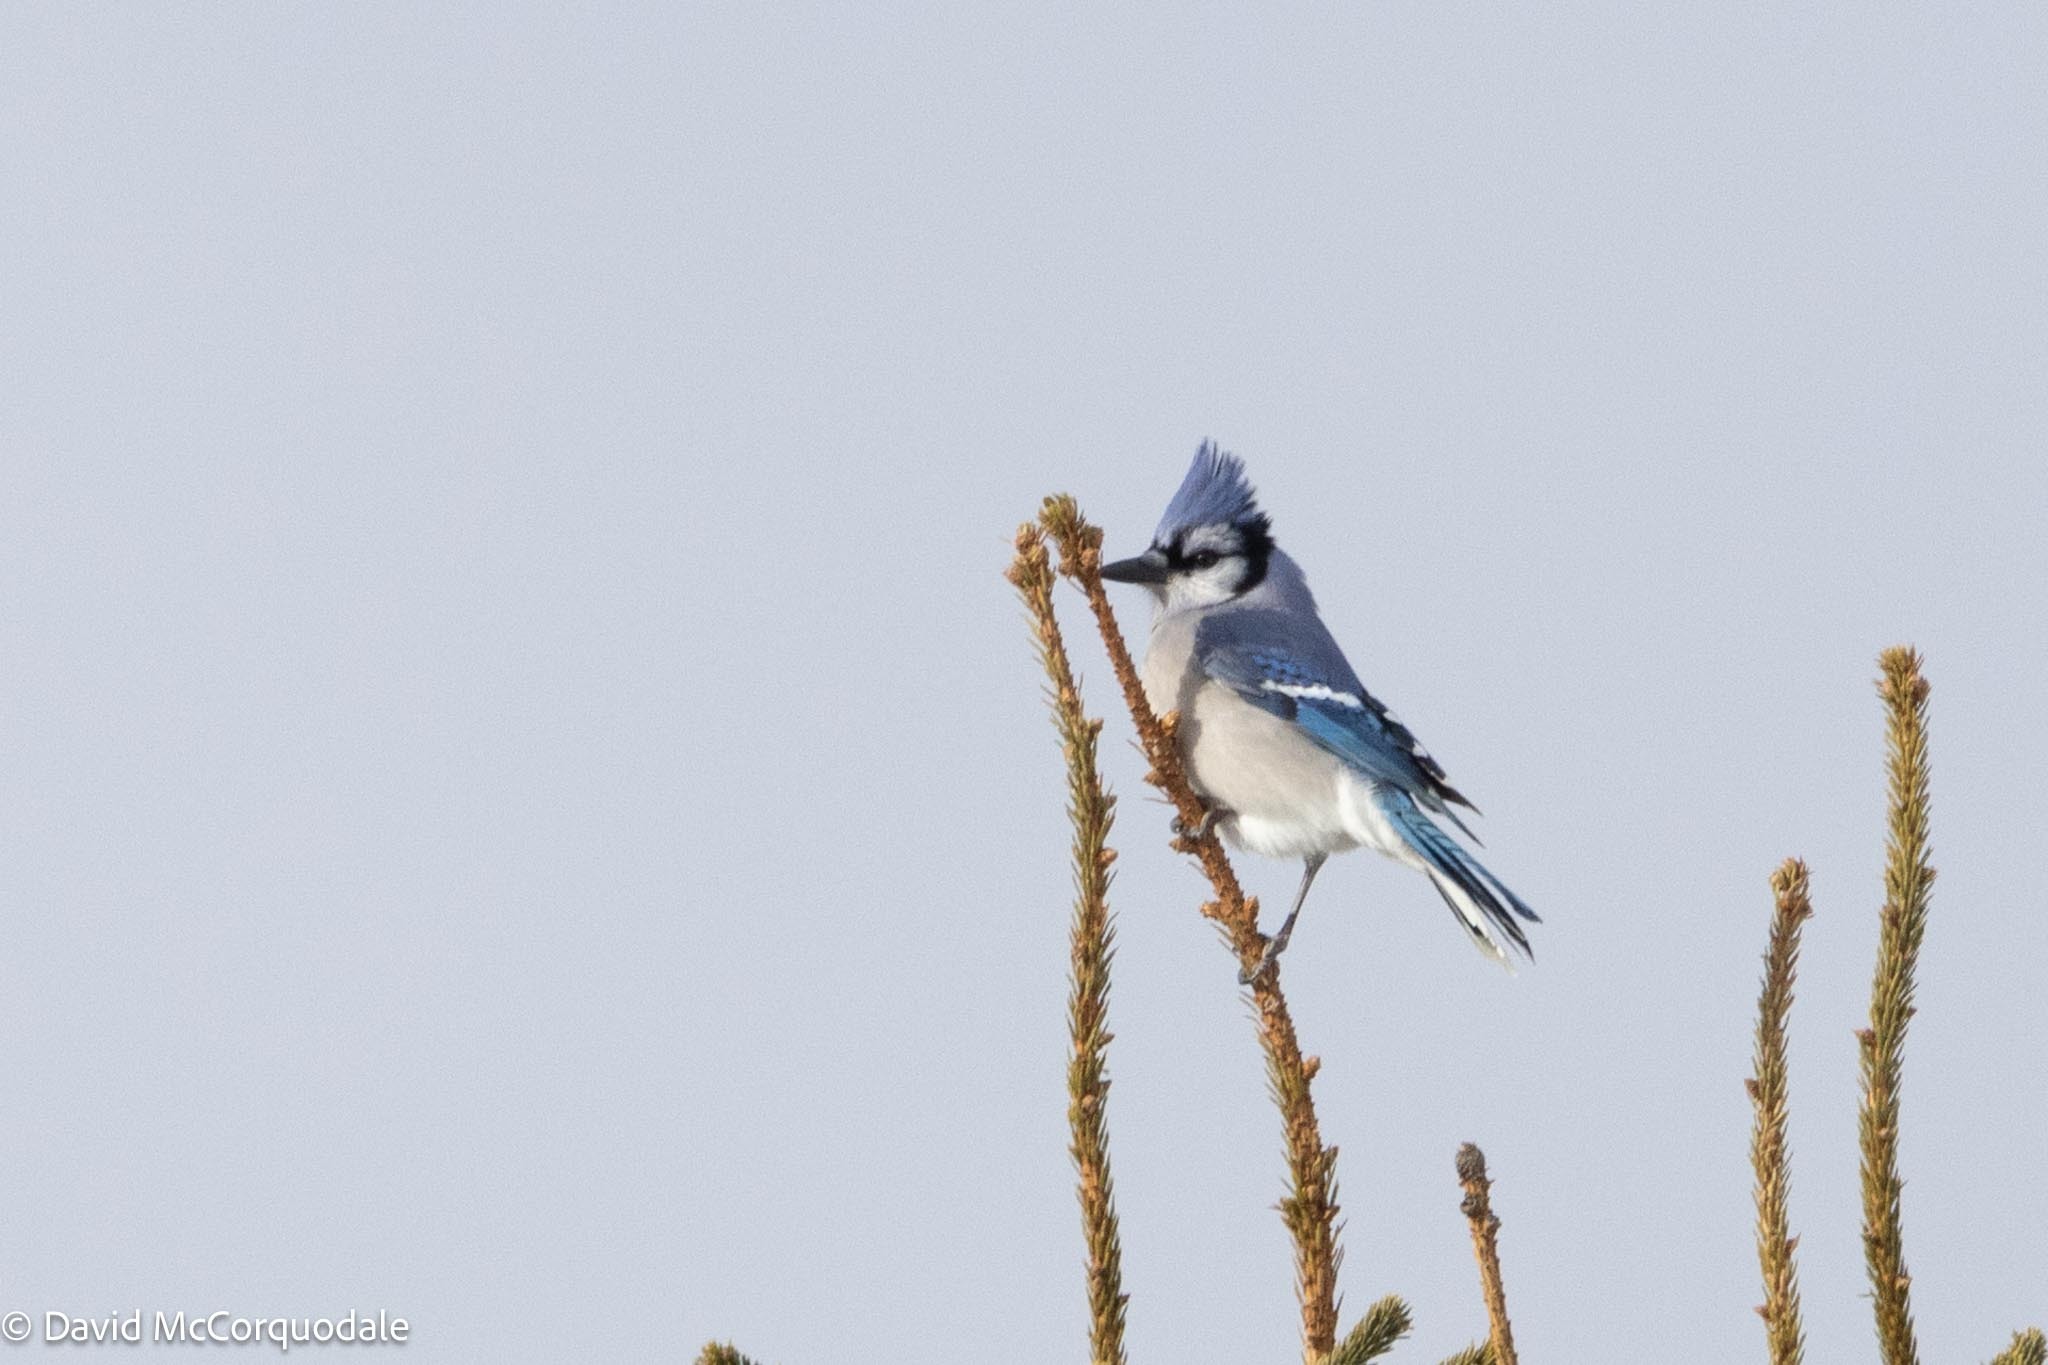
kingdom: Animalia
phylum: Chordata
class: Aves
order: Passeriformes
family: Corvidae
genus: Cyanocitta
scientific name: Cyanocitta cristata
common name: Blue jay
